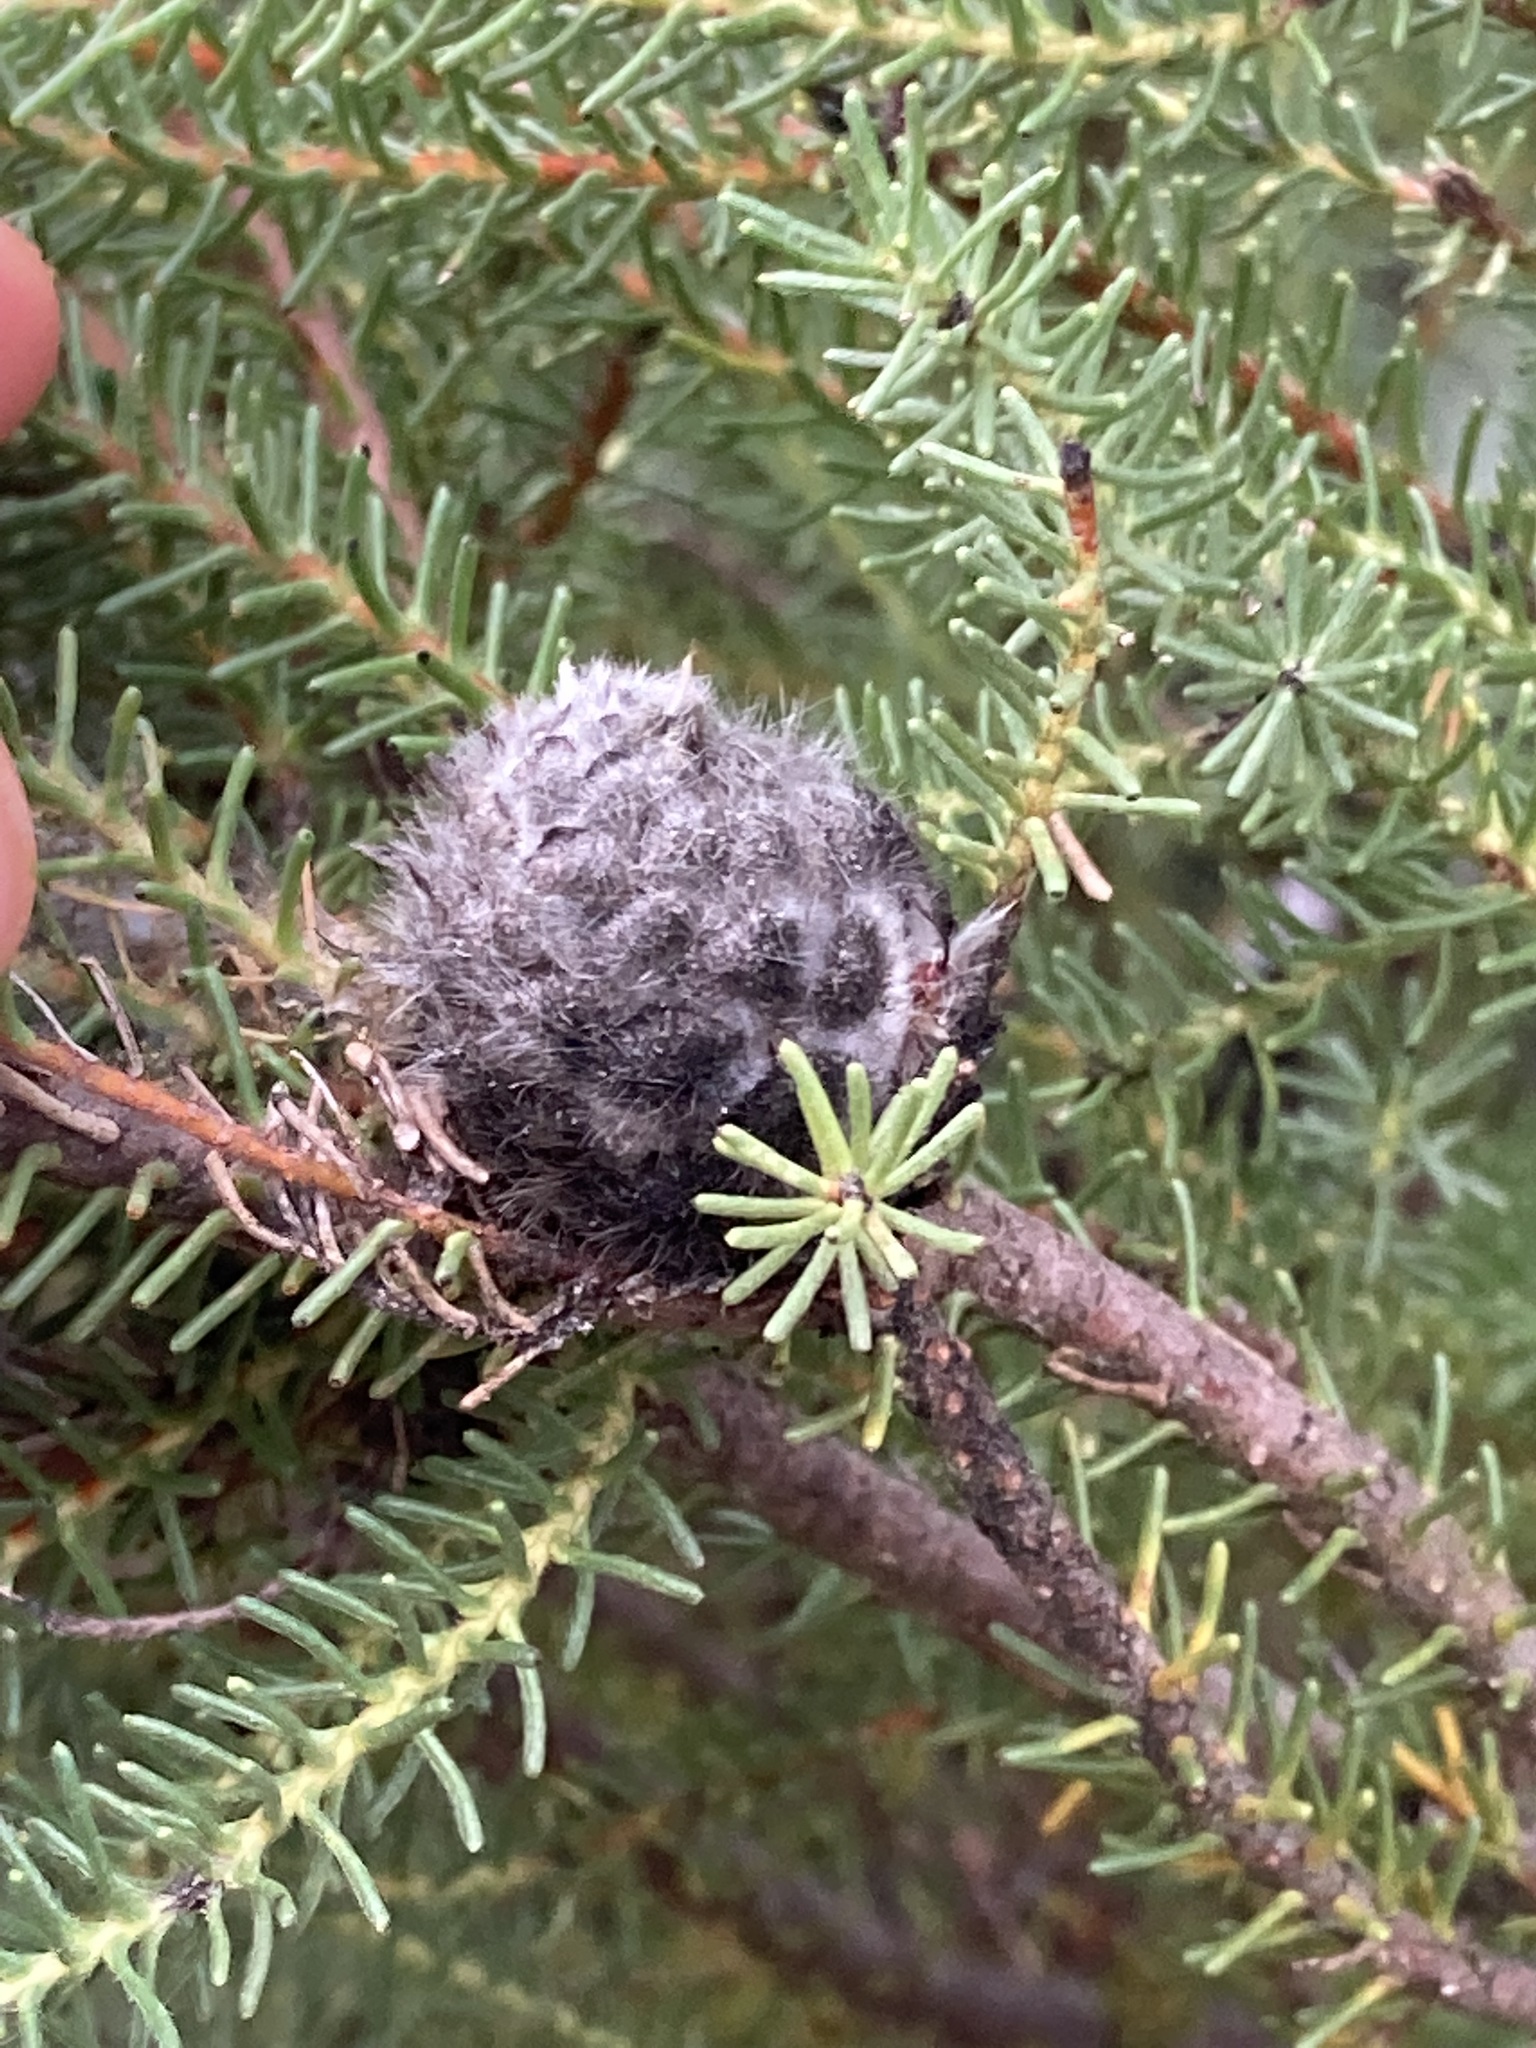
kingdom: Plantae
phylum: Tracheophyta
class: Magnoliopsida
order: Proteales
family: Proteaceae
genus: Petrophile
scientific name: Petrophile ericifolia
